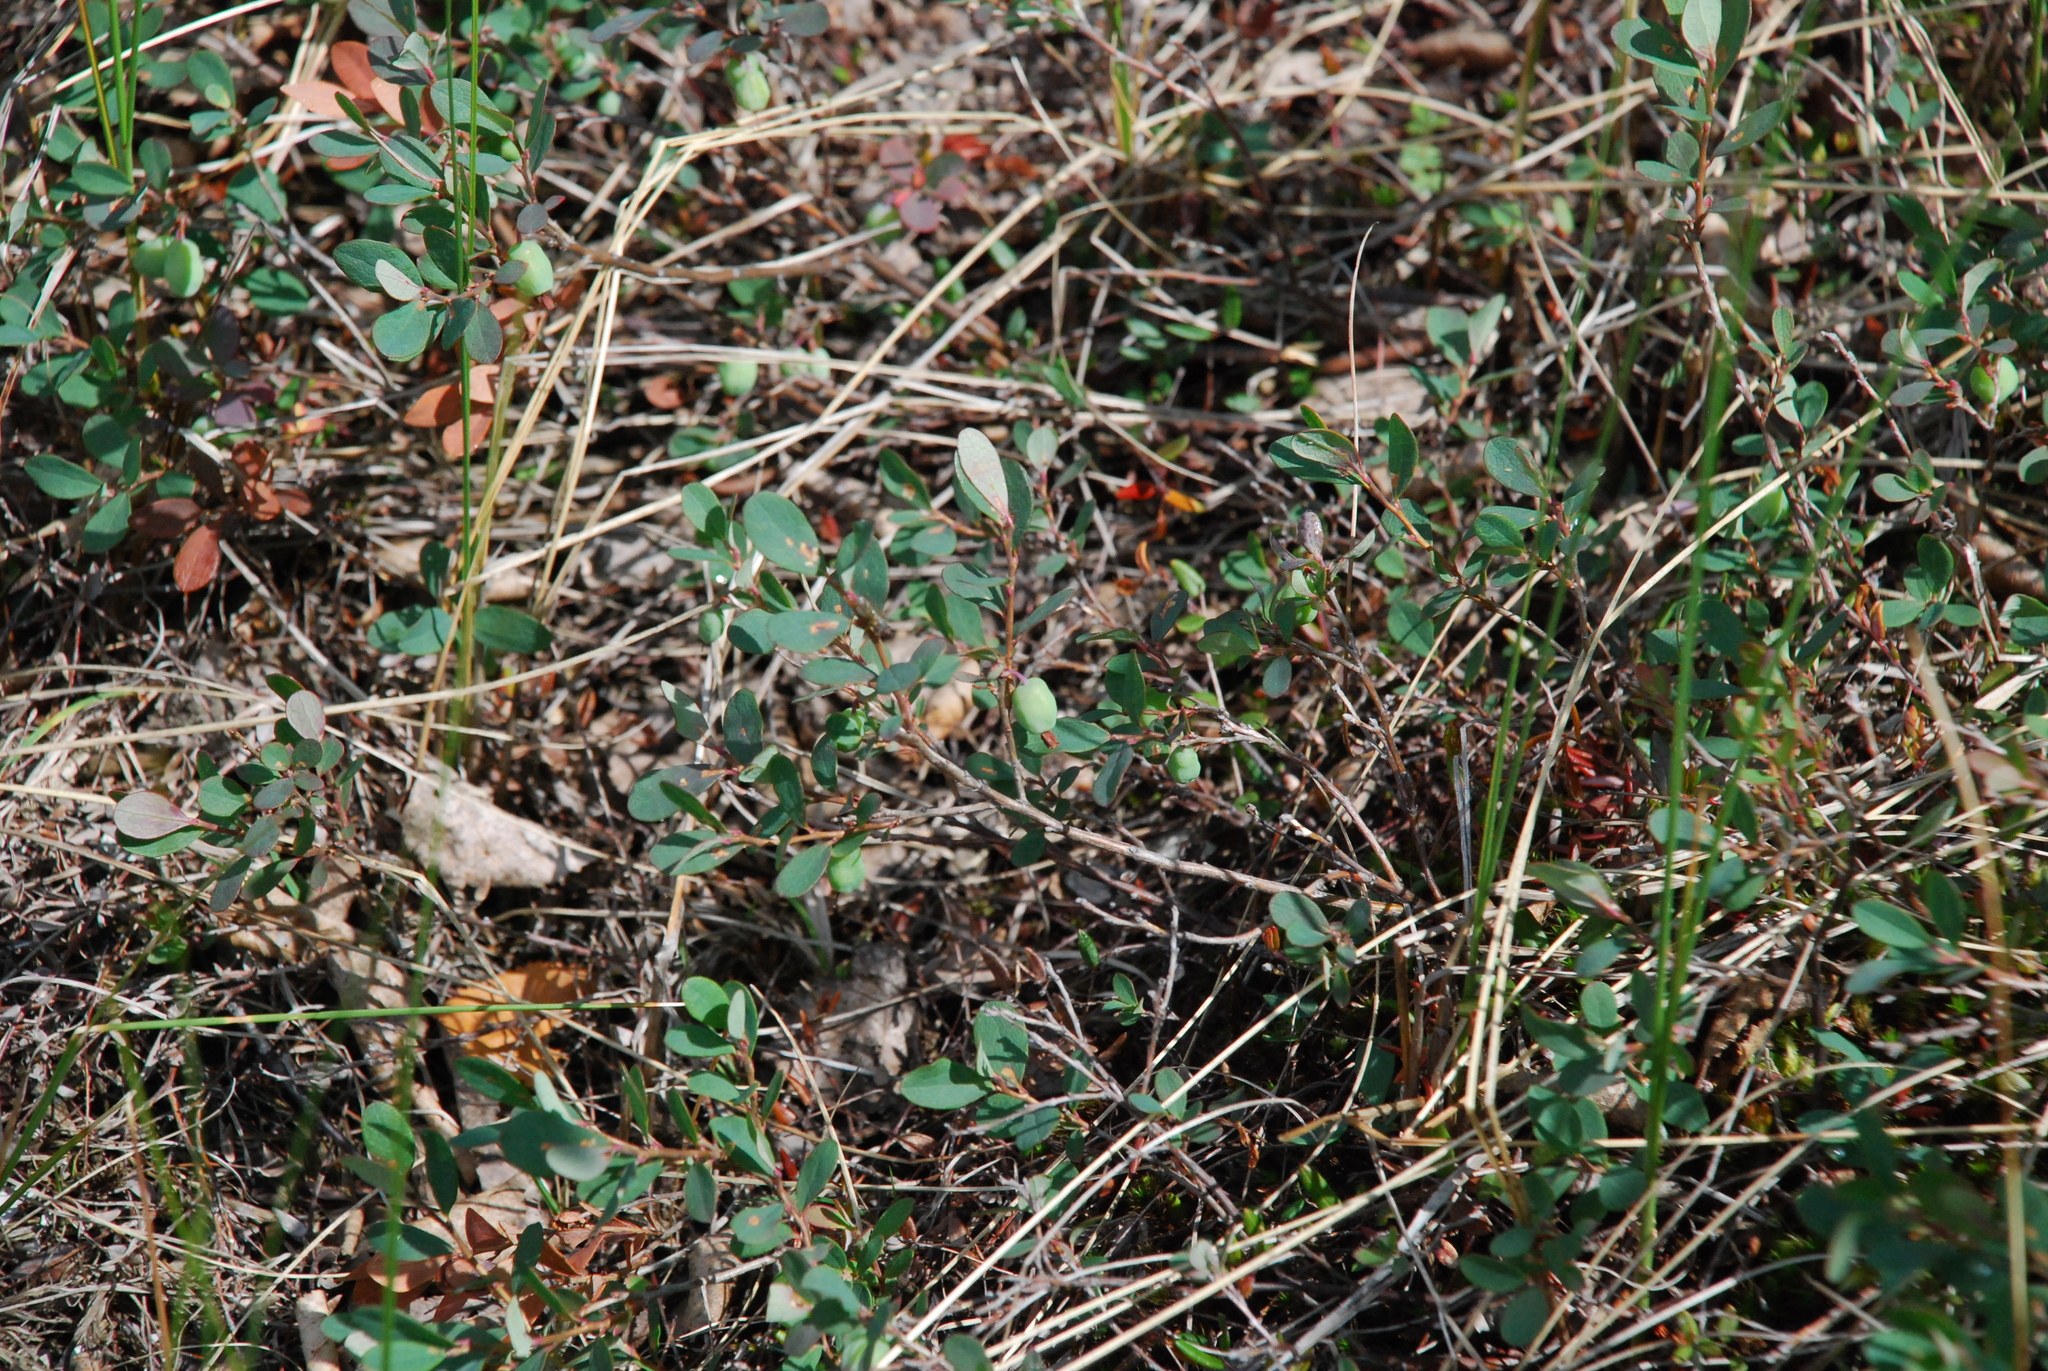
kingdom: Plantae
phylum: Tracheophyta
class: Magnoliopsida
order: Ericales
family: Ericaceae
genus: Vaccinium
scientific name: Vaccinium uliginosum
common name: Bog bilberry
